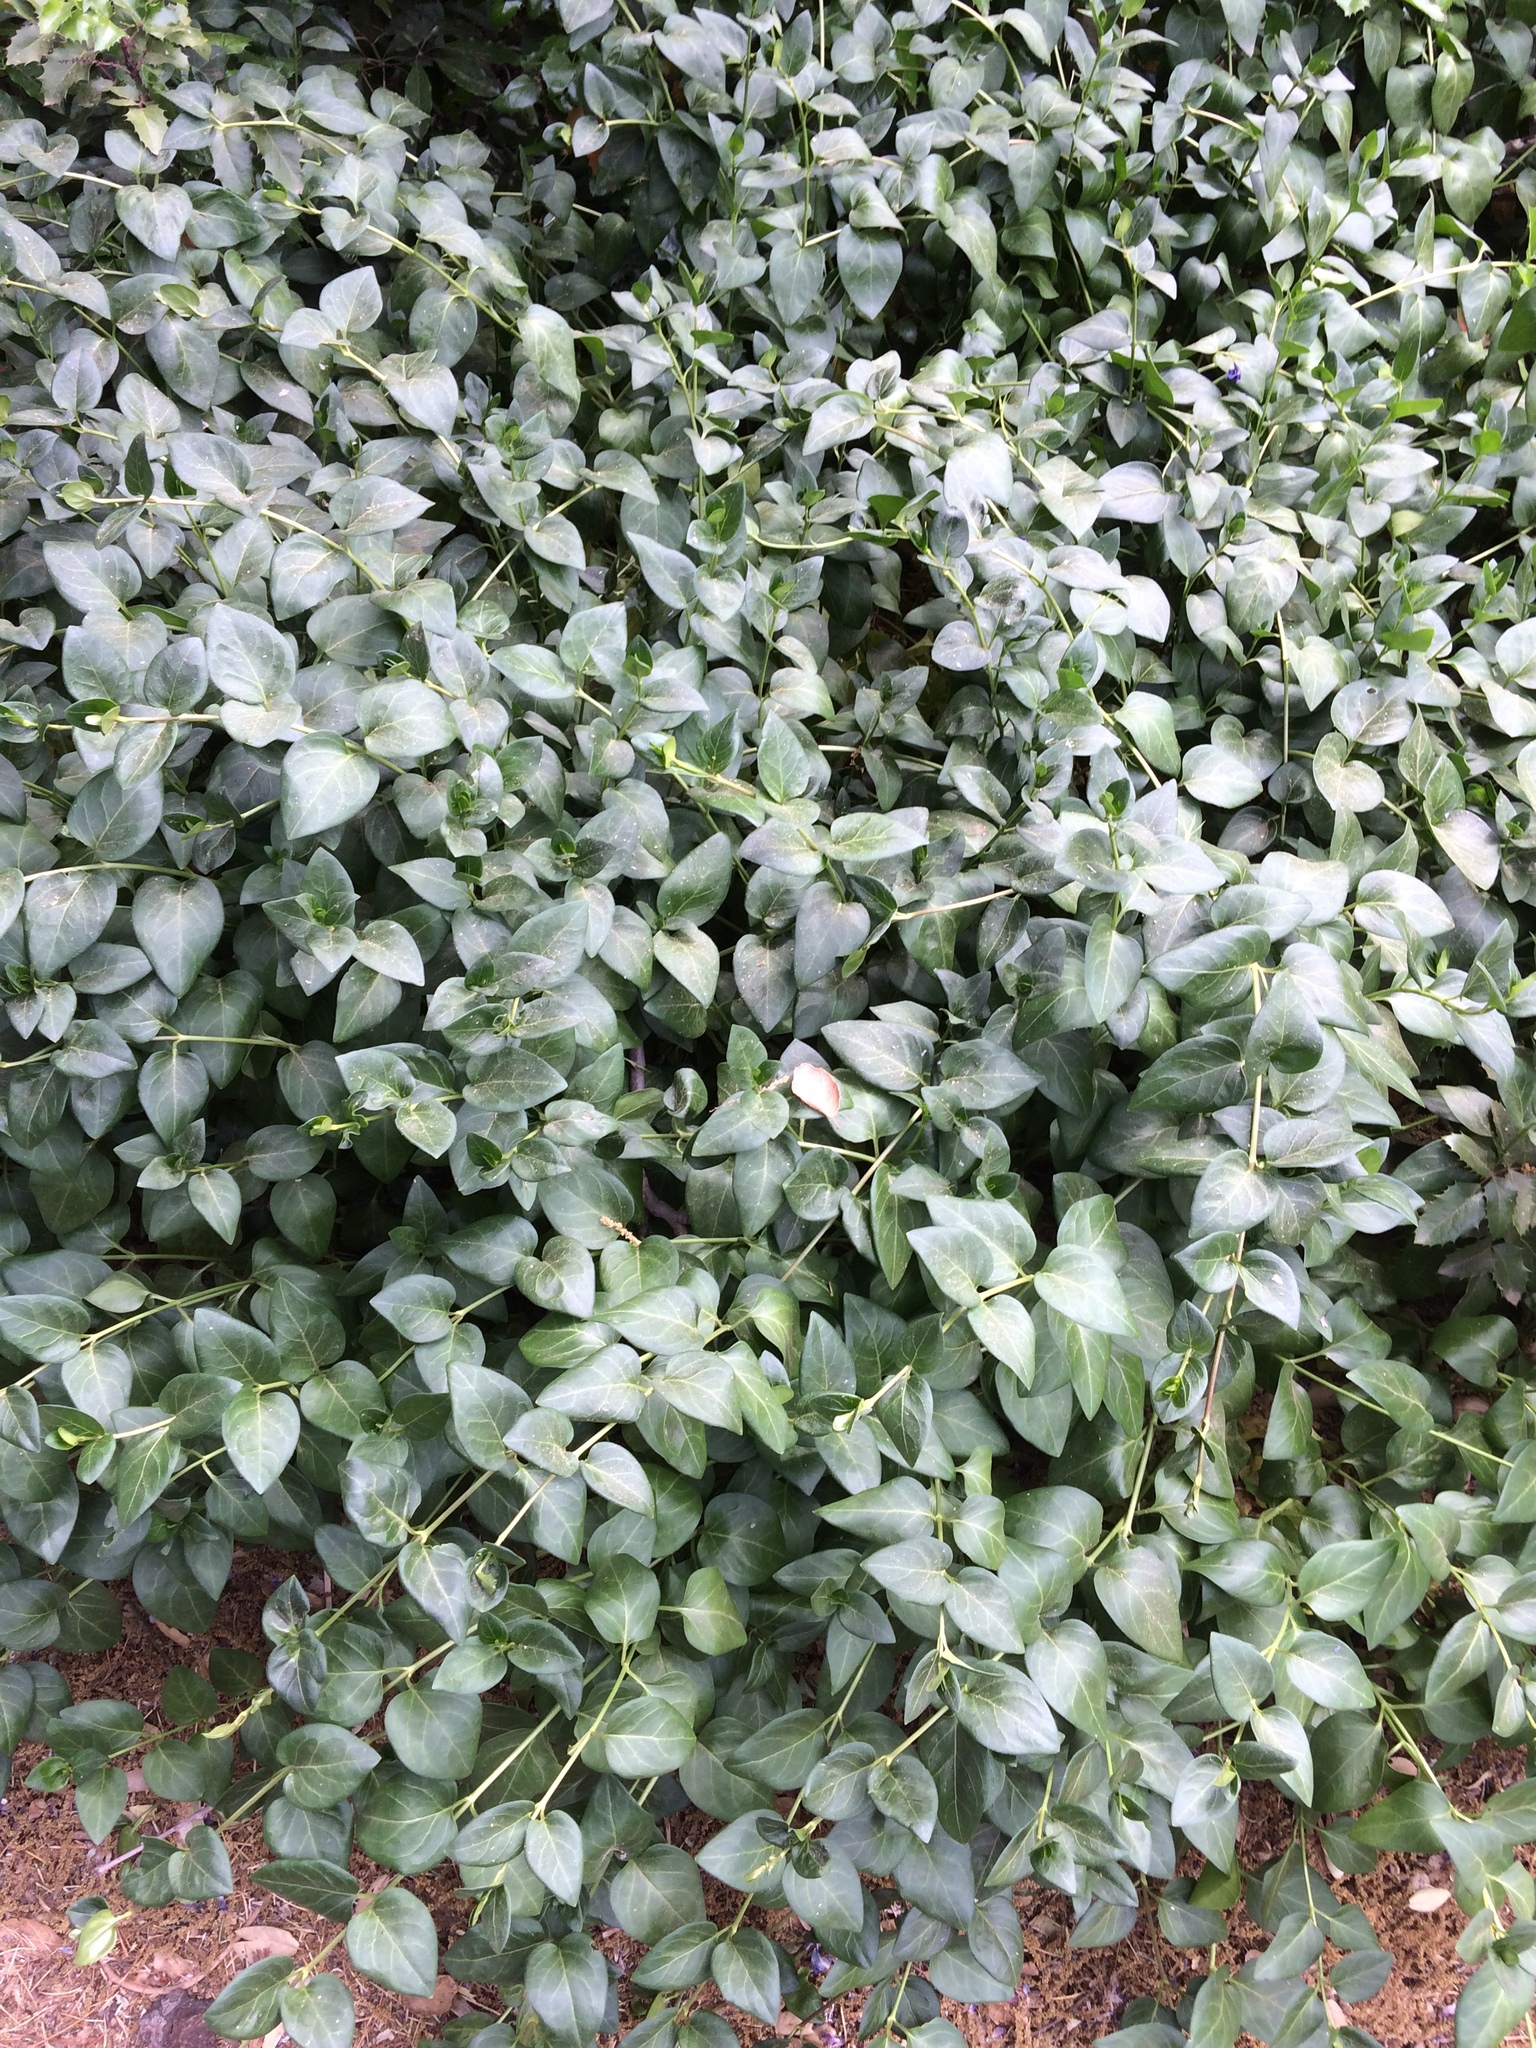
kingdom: Plantae
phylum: Tracheophyta
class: Magnoliopsida
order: Gentianales
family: Apocynaceae
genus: Vinca
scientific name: Vinca major
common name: Greater periwinkle
